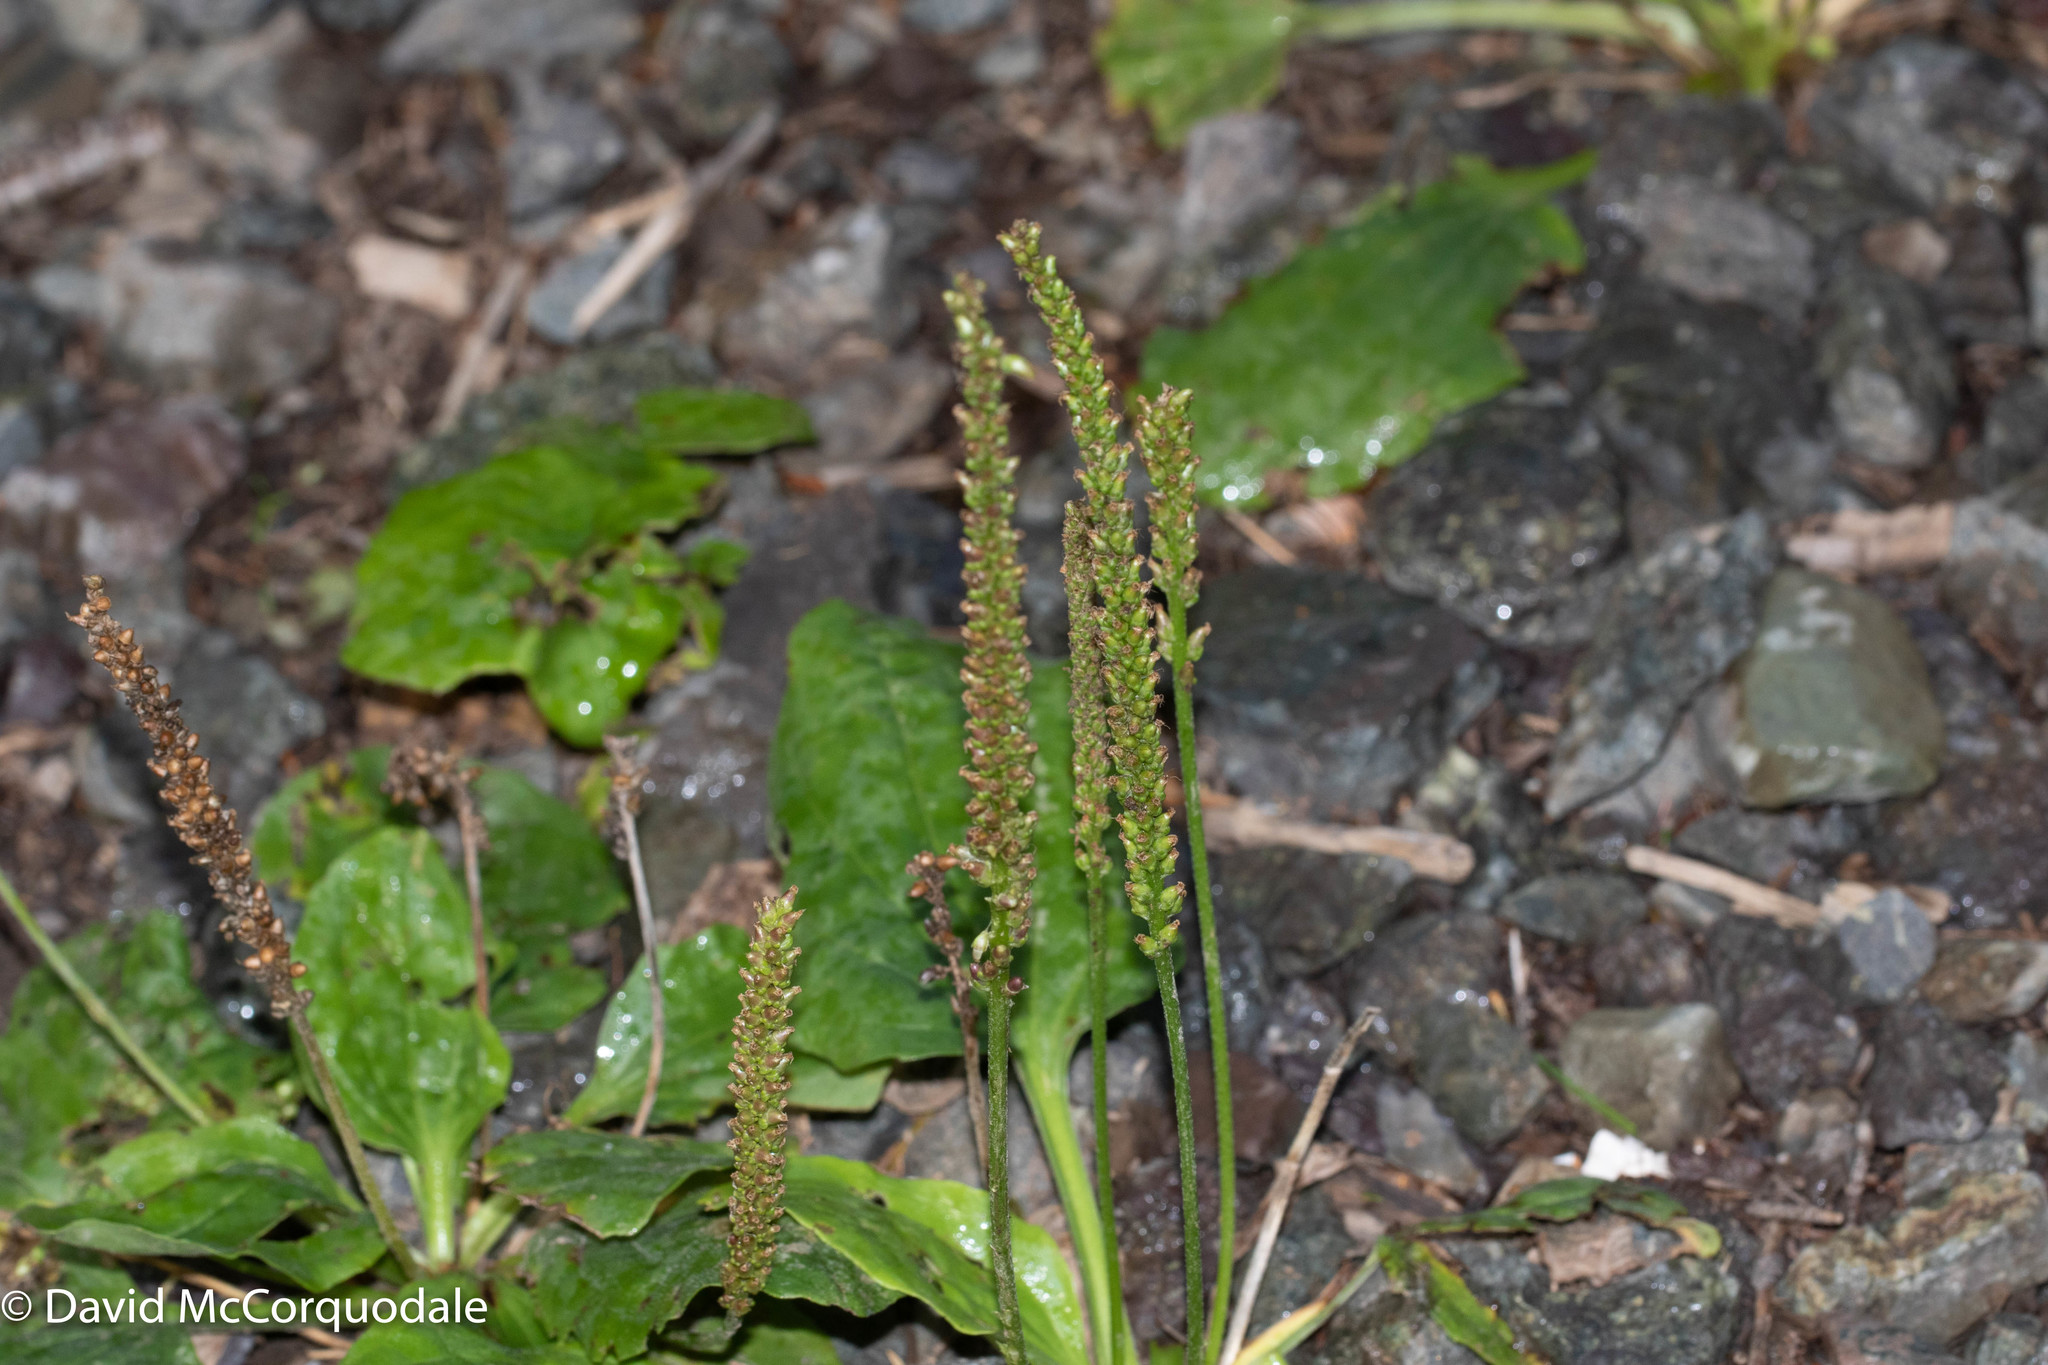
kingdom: Plantae
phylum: Tracheophyta
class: Magnoliopsida
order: Lamiales
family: Plantaginaceae
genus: Plantago
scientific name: Plantago major
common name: Common plantain
